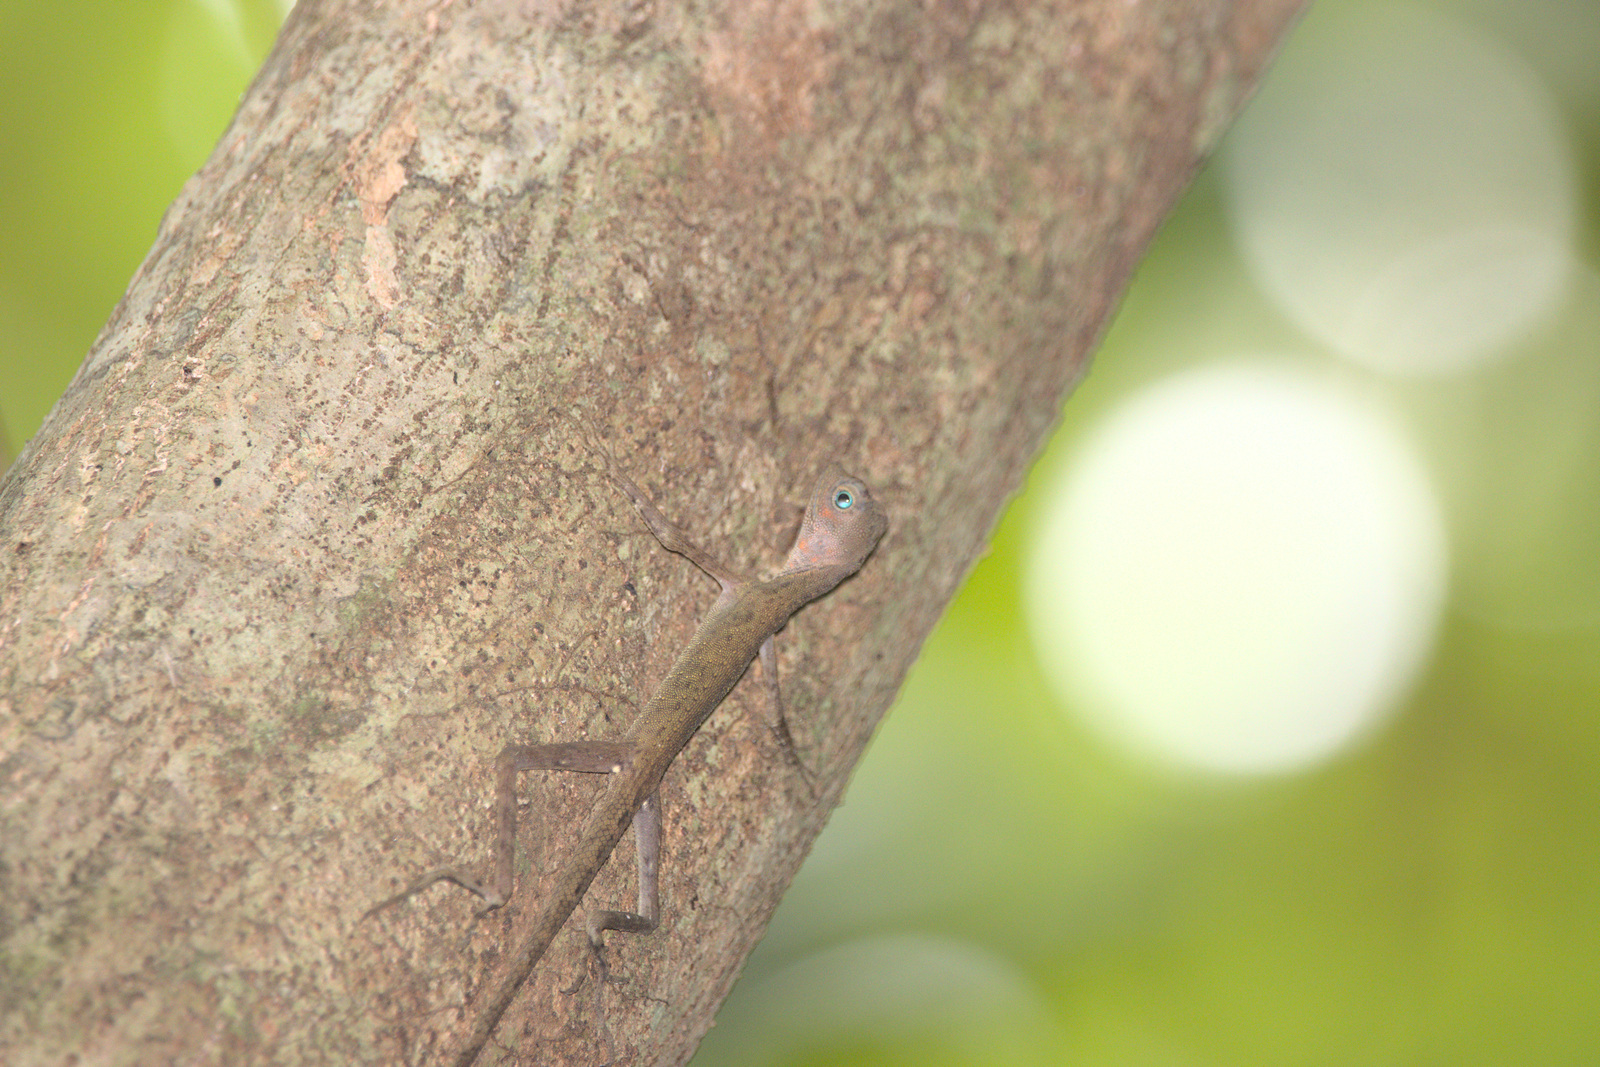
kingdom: Animalia
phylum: Chordata
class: Squamata
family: Agamidae
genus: Aphaniotis
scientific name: Aphaniotis fusca
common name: Dusky earless agama
